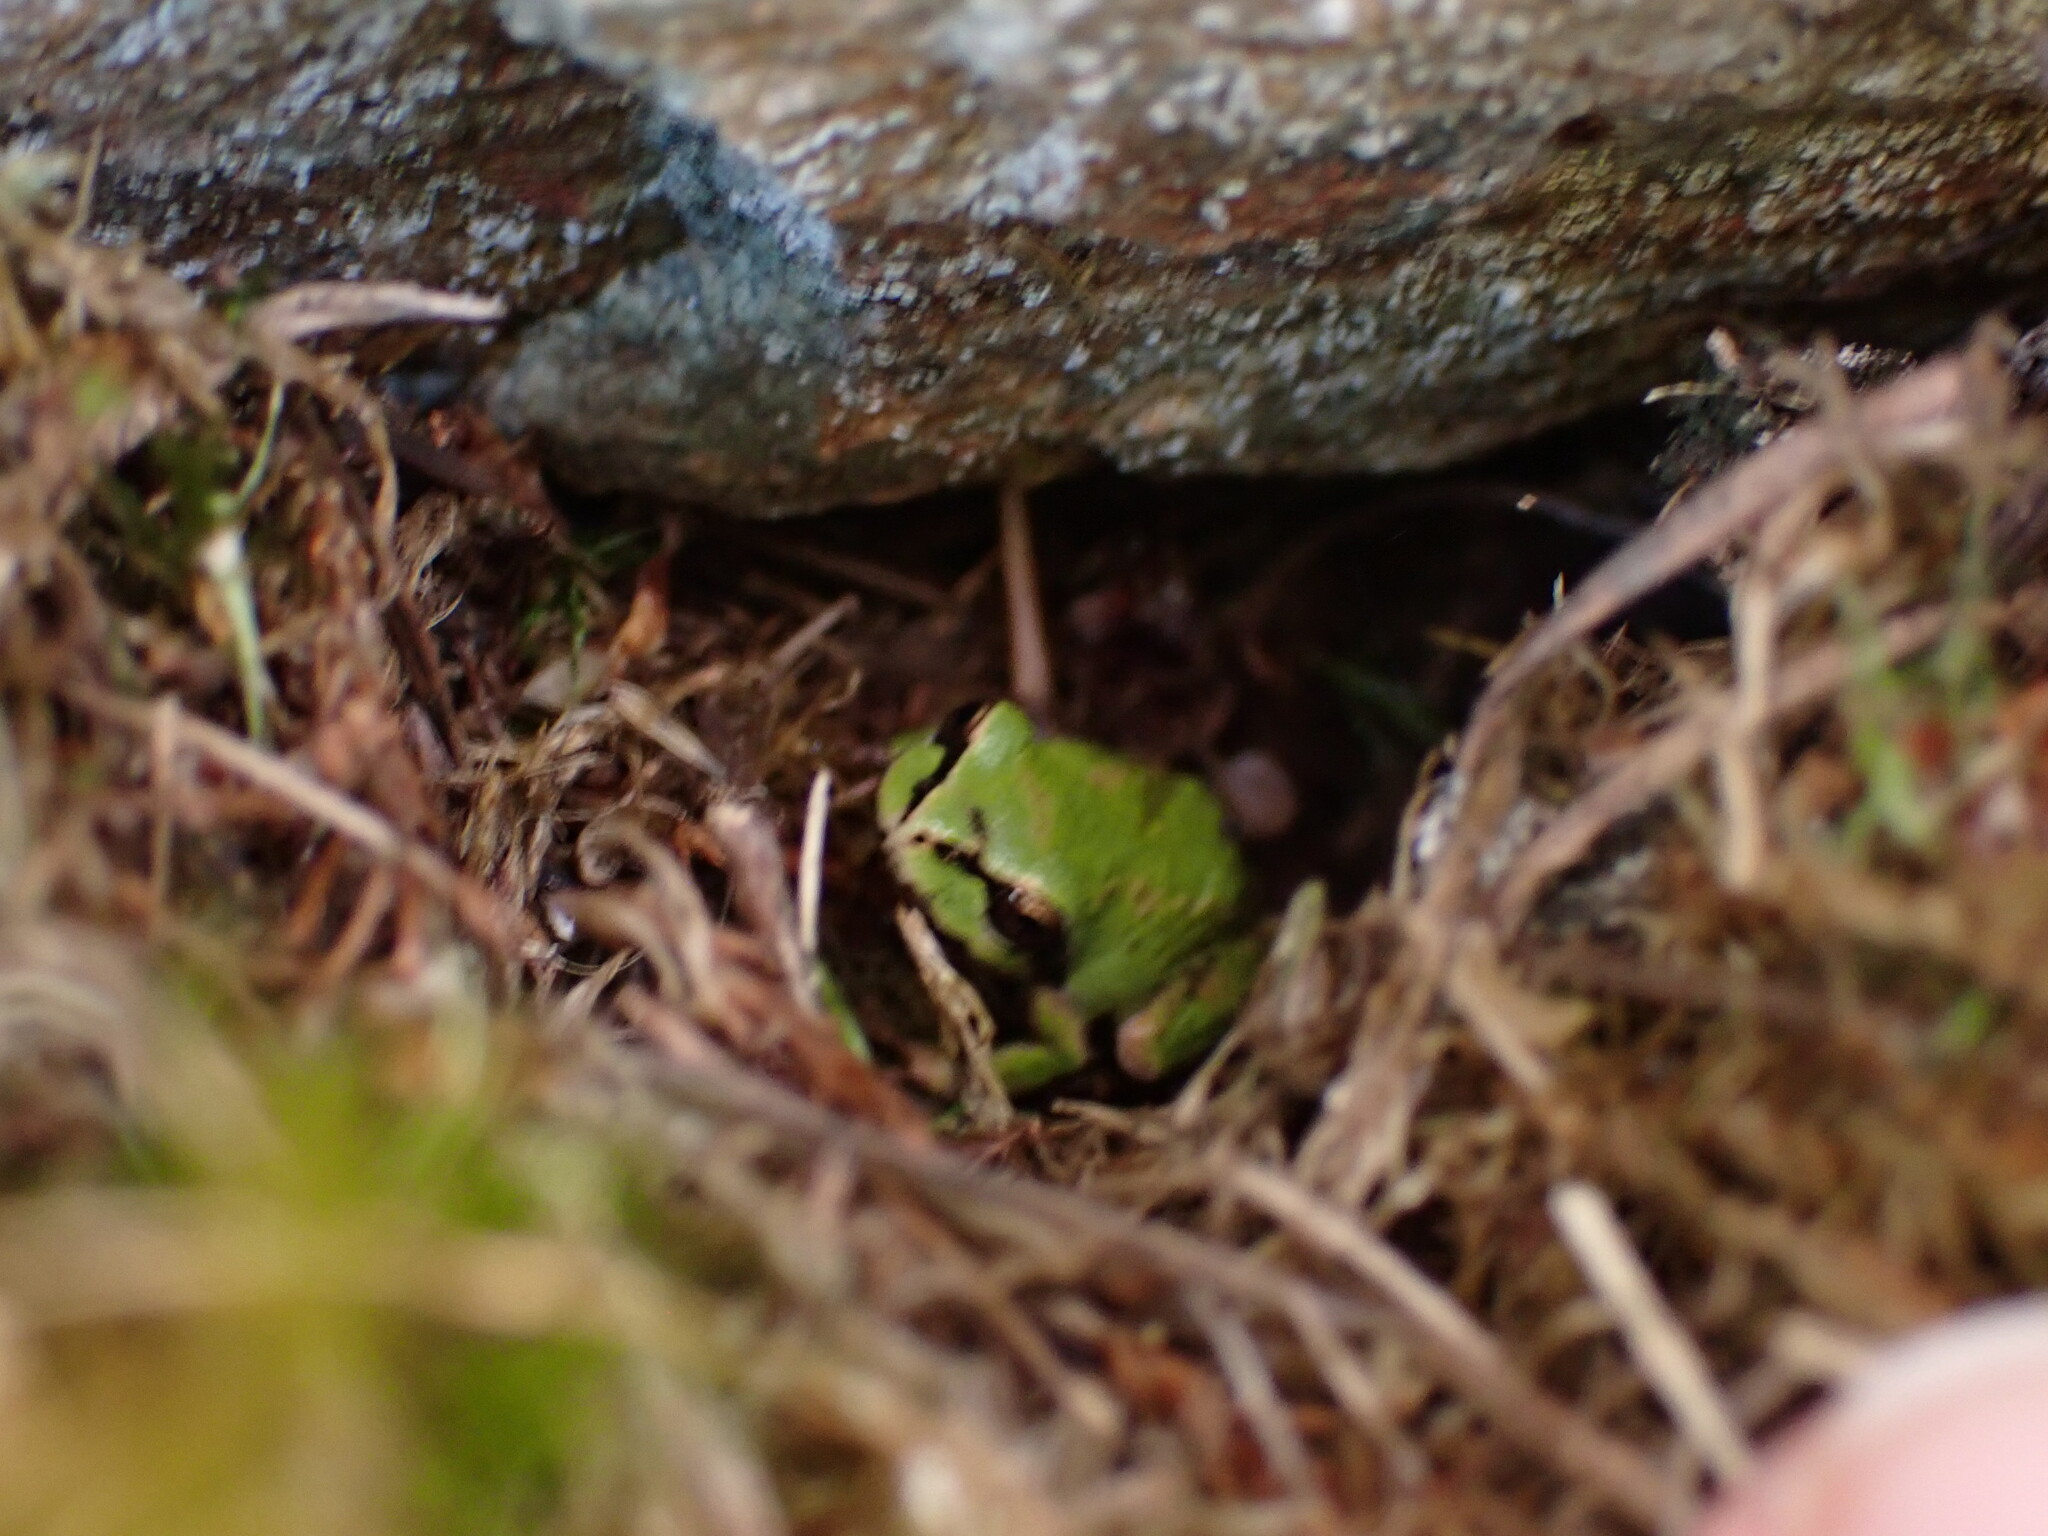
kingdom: Animalia
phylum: Chordata
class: Amphibia
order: Anura
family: Hylidae
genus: Pseudacris
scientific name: Pseudacris regilla
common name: Pacific chorus frog
